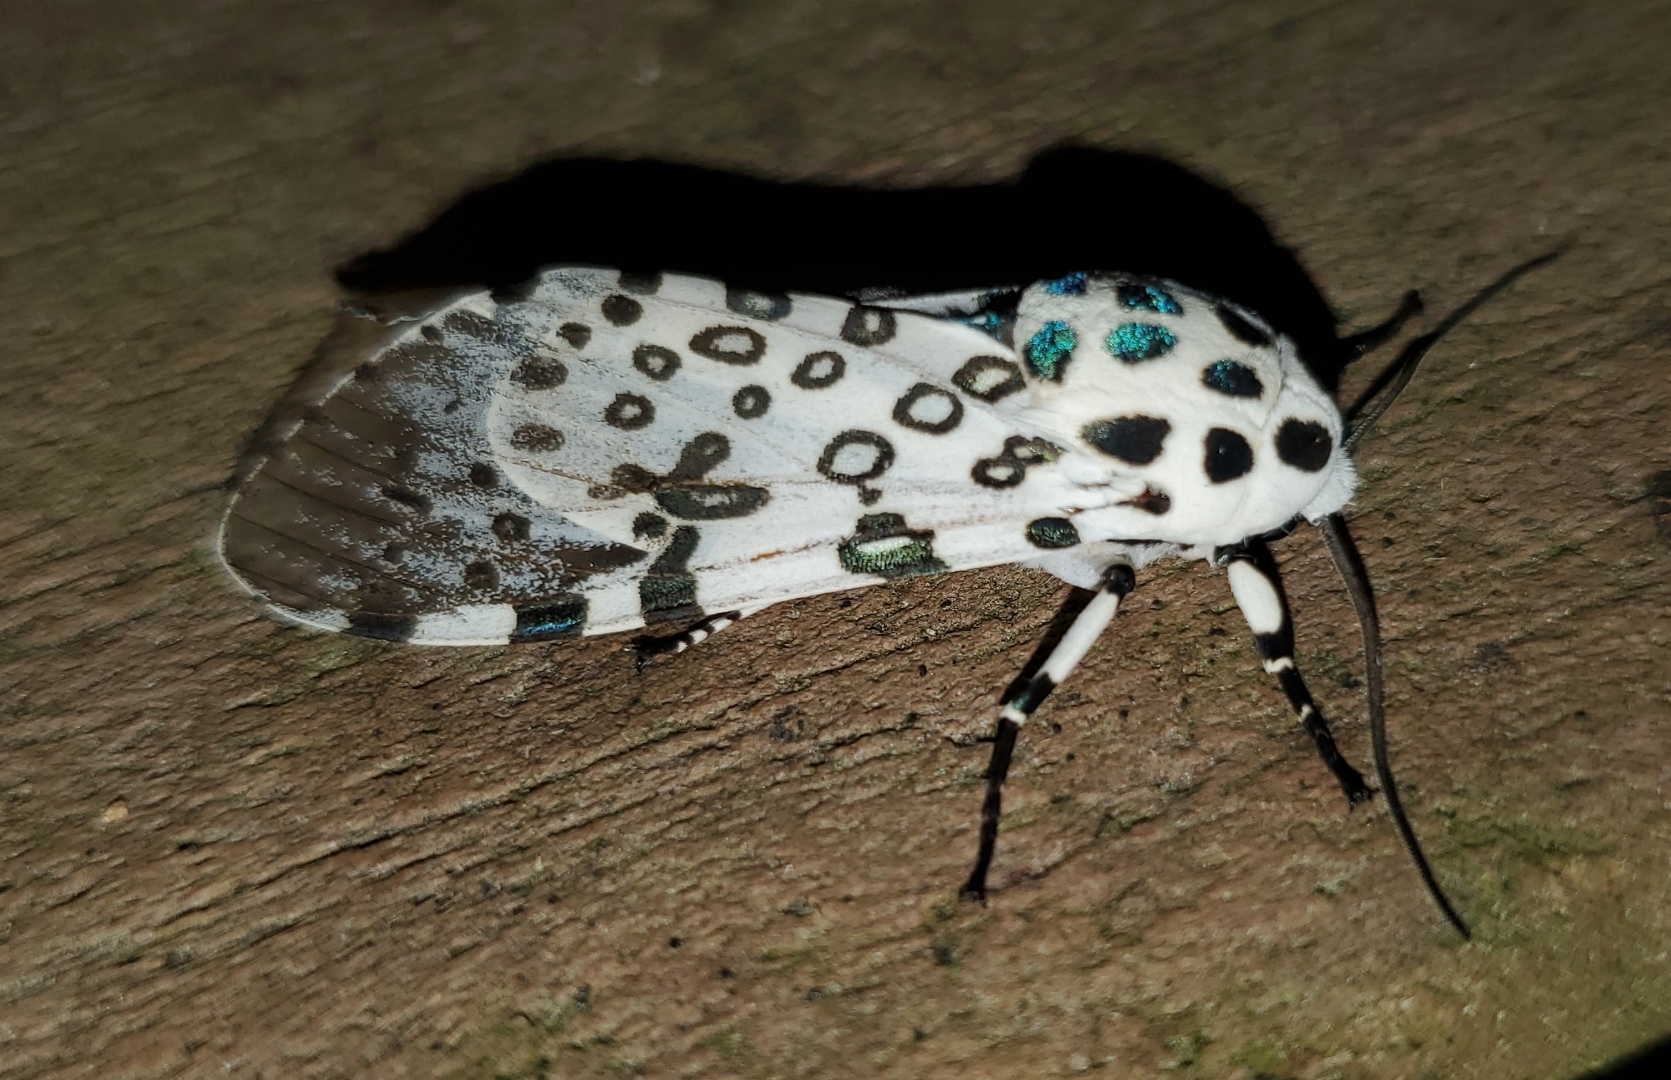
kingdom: Animalia
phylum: Arthropoda
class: Insecta
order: Lepidoptera
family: Erebidae
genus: Hypercompe
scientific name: Hypercompe scribonia
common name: Giant leopard moth
